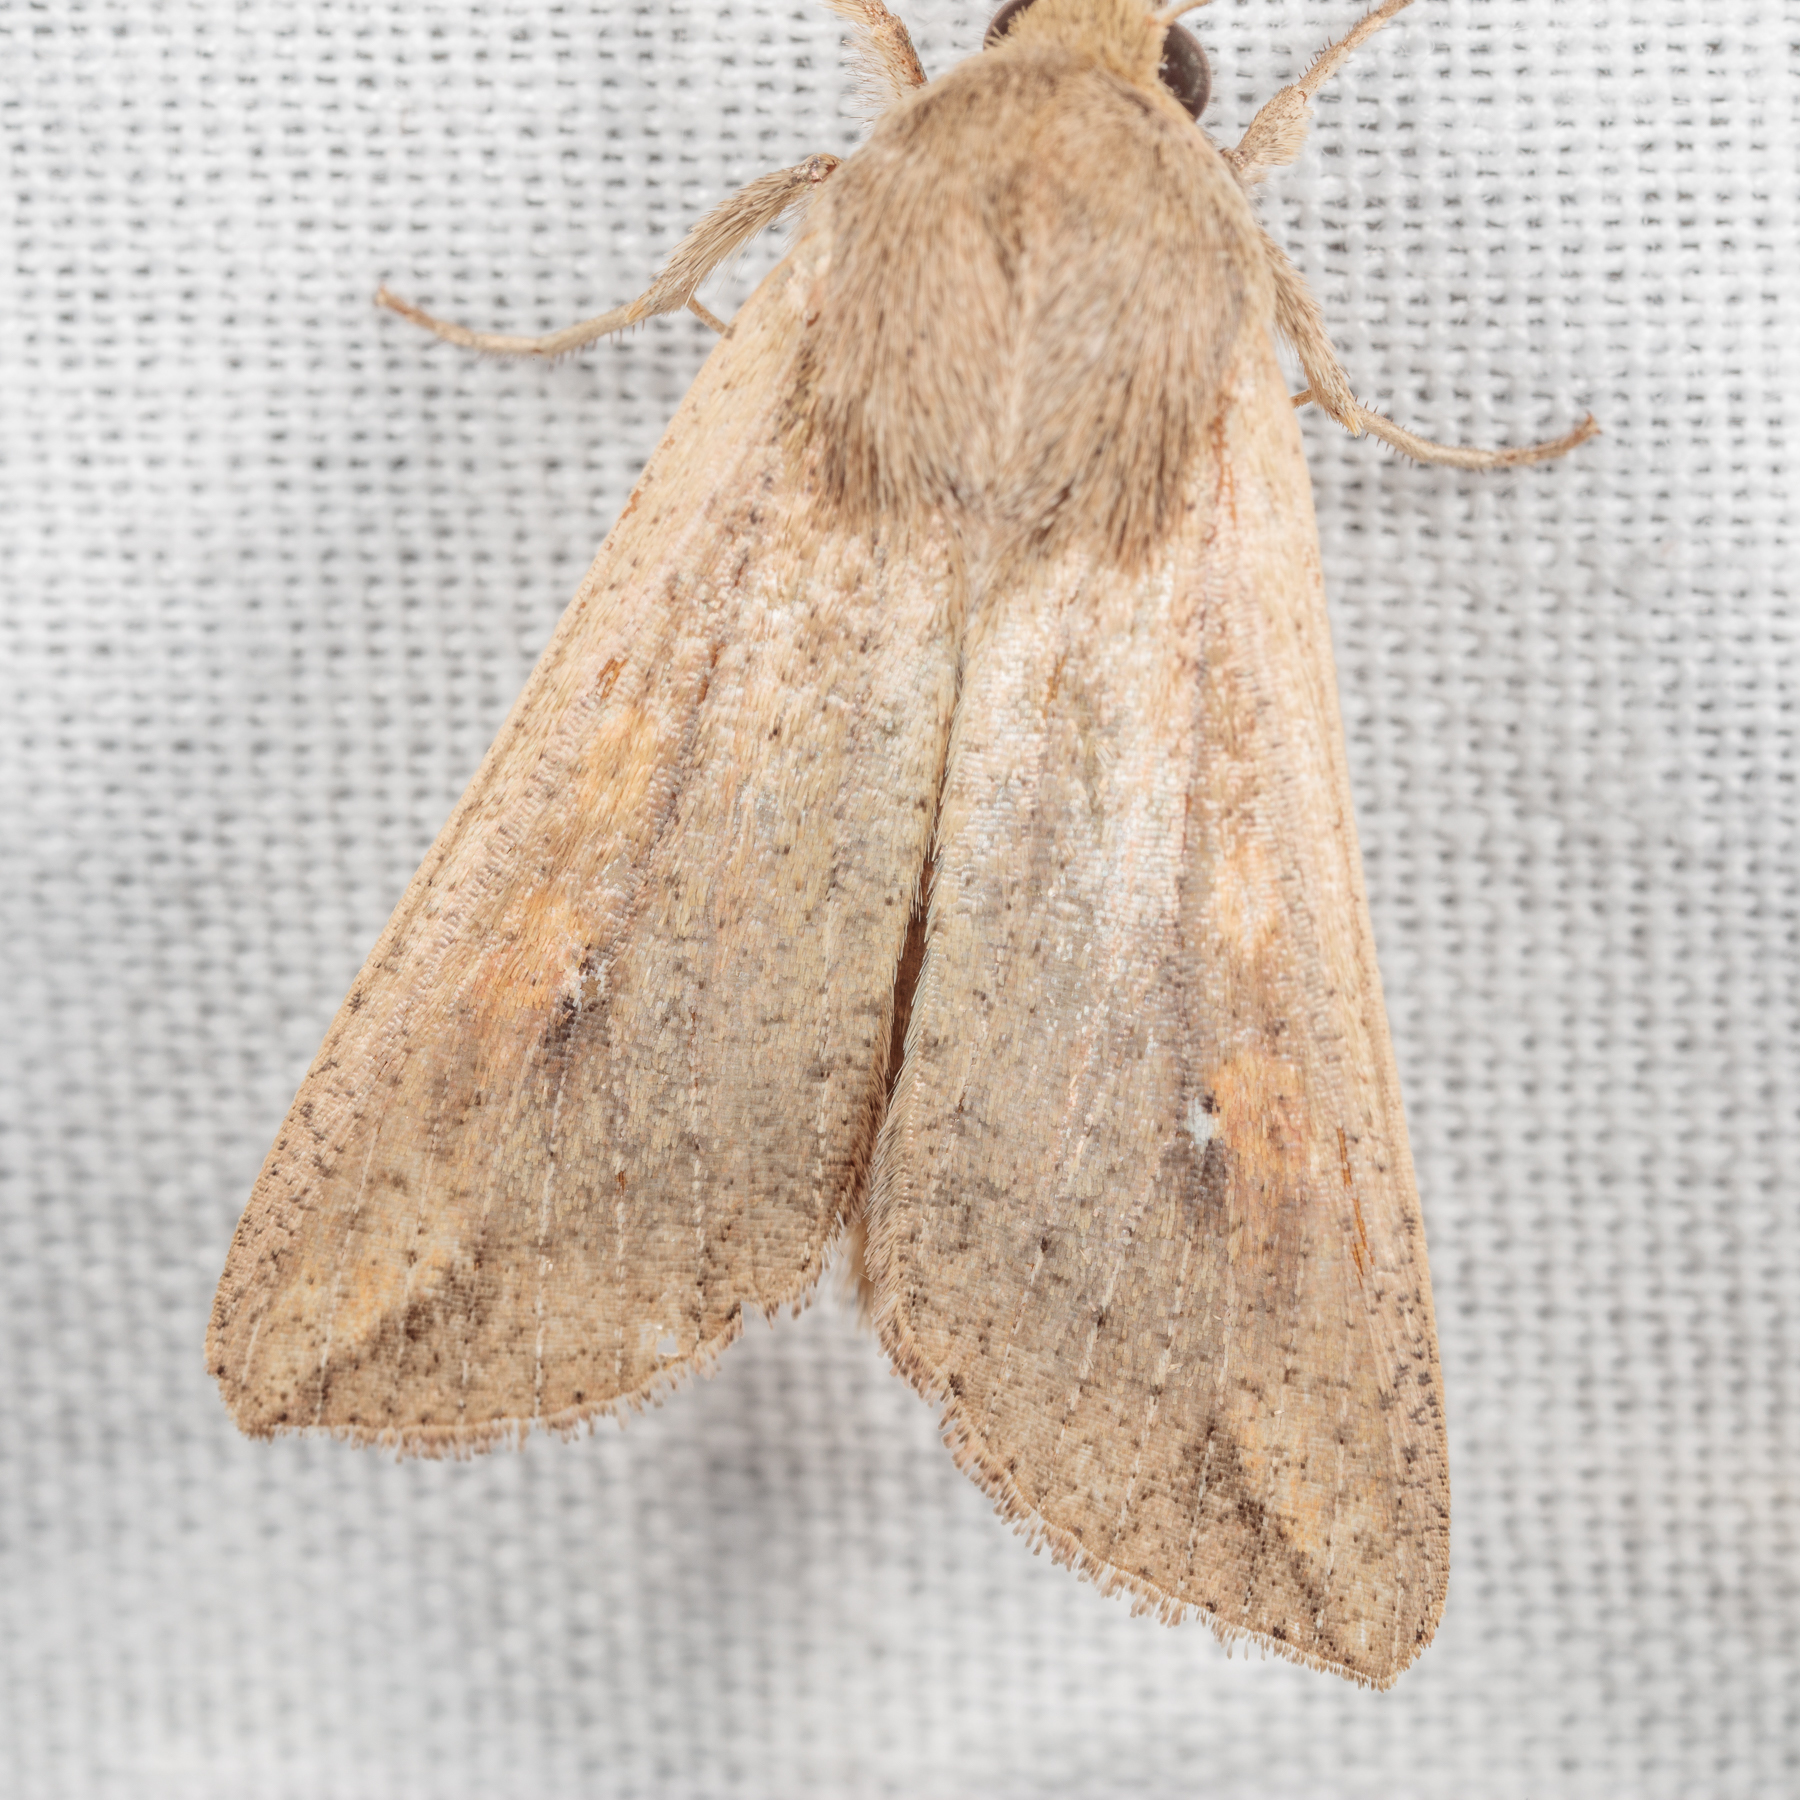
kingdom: Animalia
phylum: Arthropoda
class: Insecta
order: Lepidoptera
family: Noctuidae
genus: Mythimna
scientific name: Mythimna unipuncta
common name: White-speck
